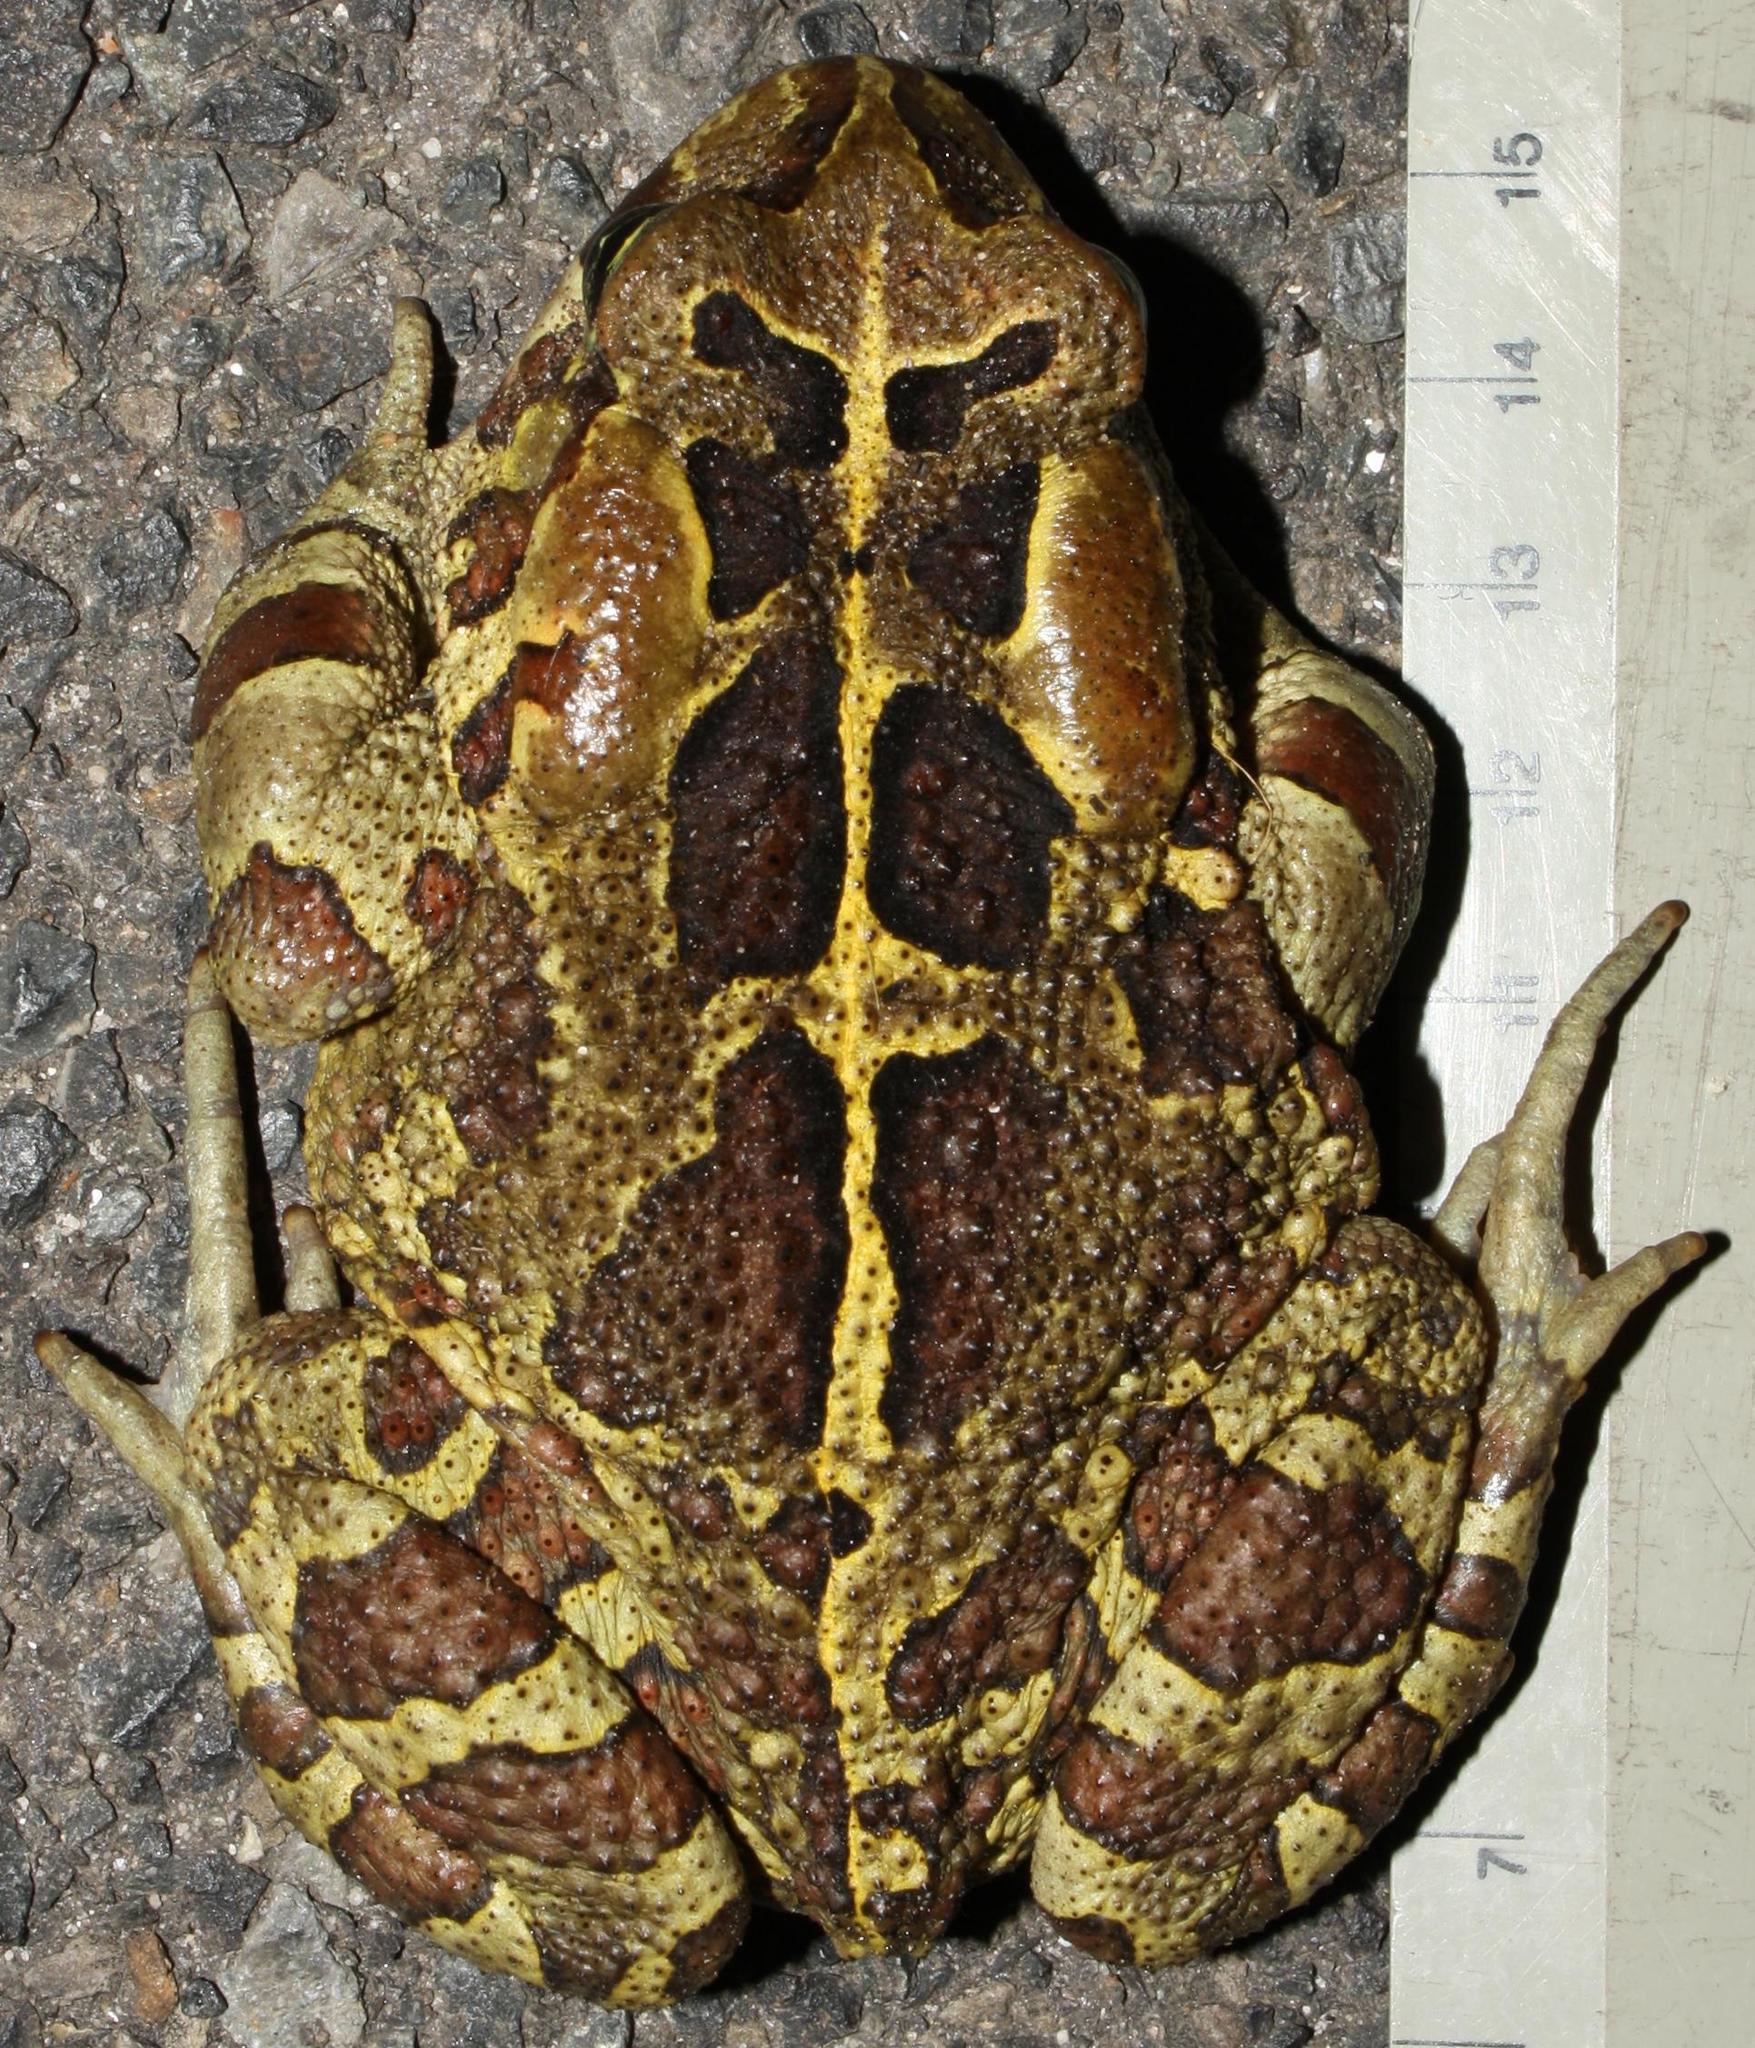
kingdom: Animalia
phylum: Chordata
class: Amphibia
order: Anura
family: Bufonidae
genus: Sclerophrys
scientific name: Sclerophrys pantherina
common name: Panther toad
